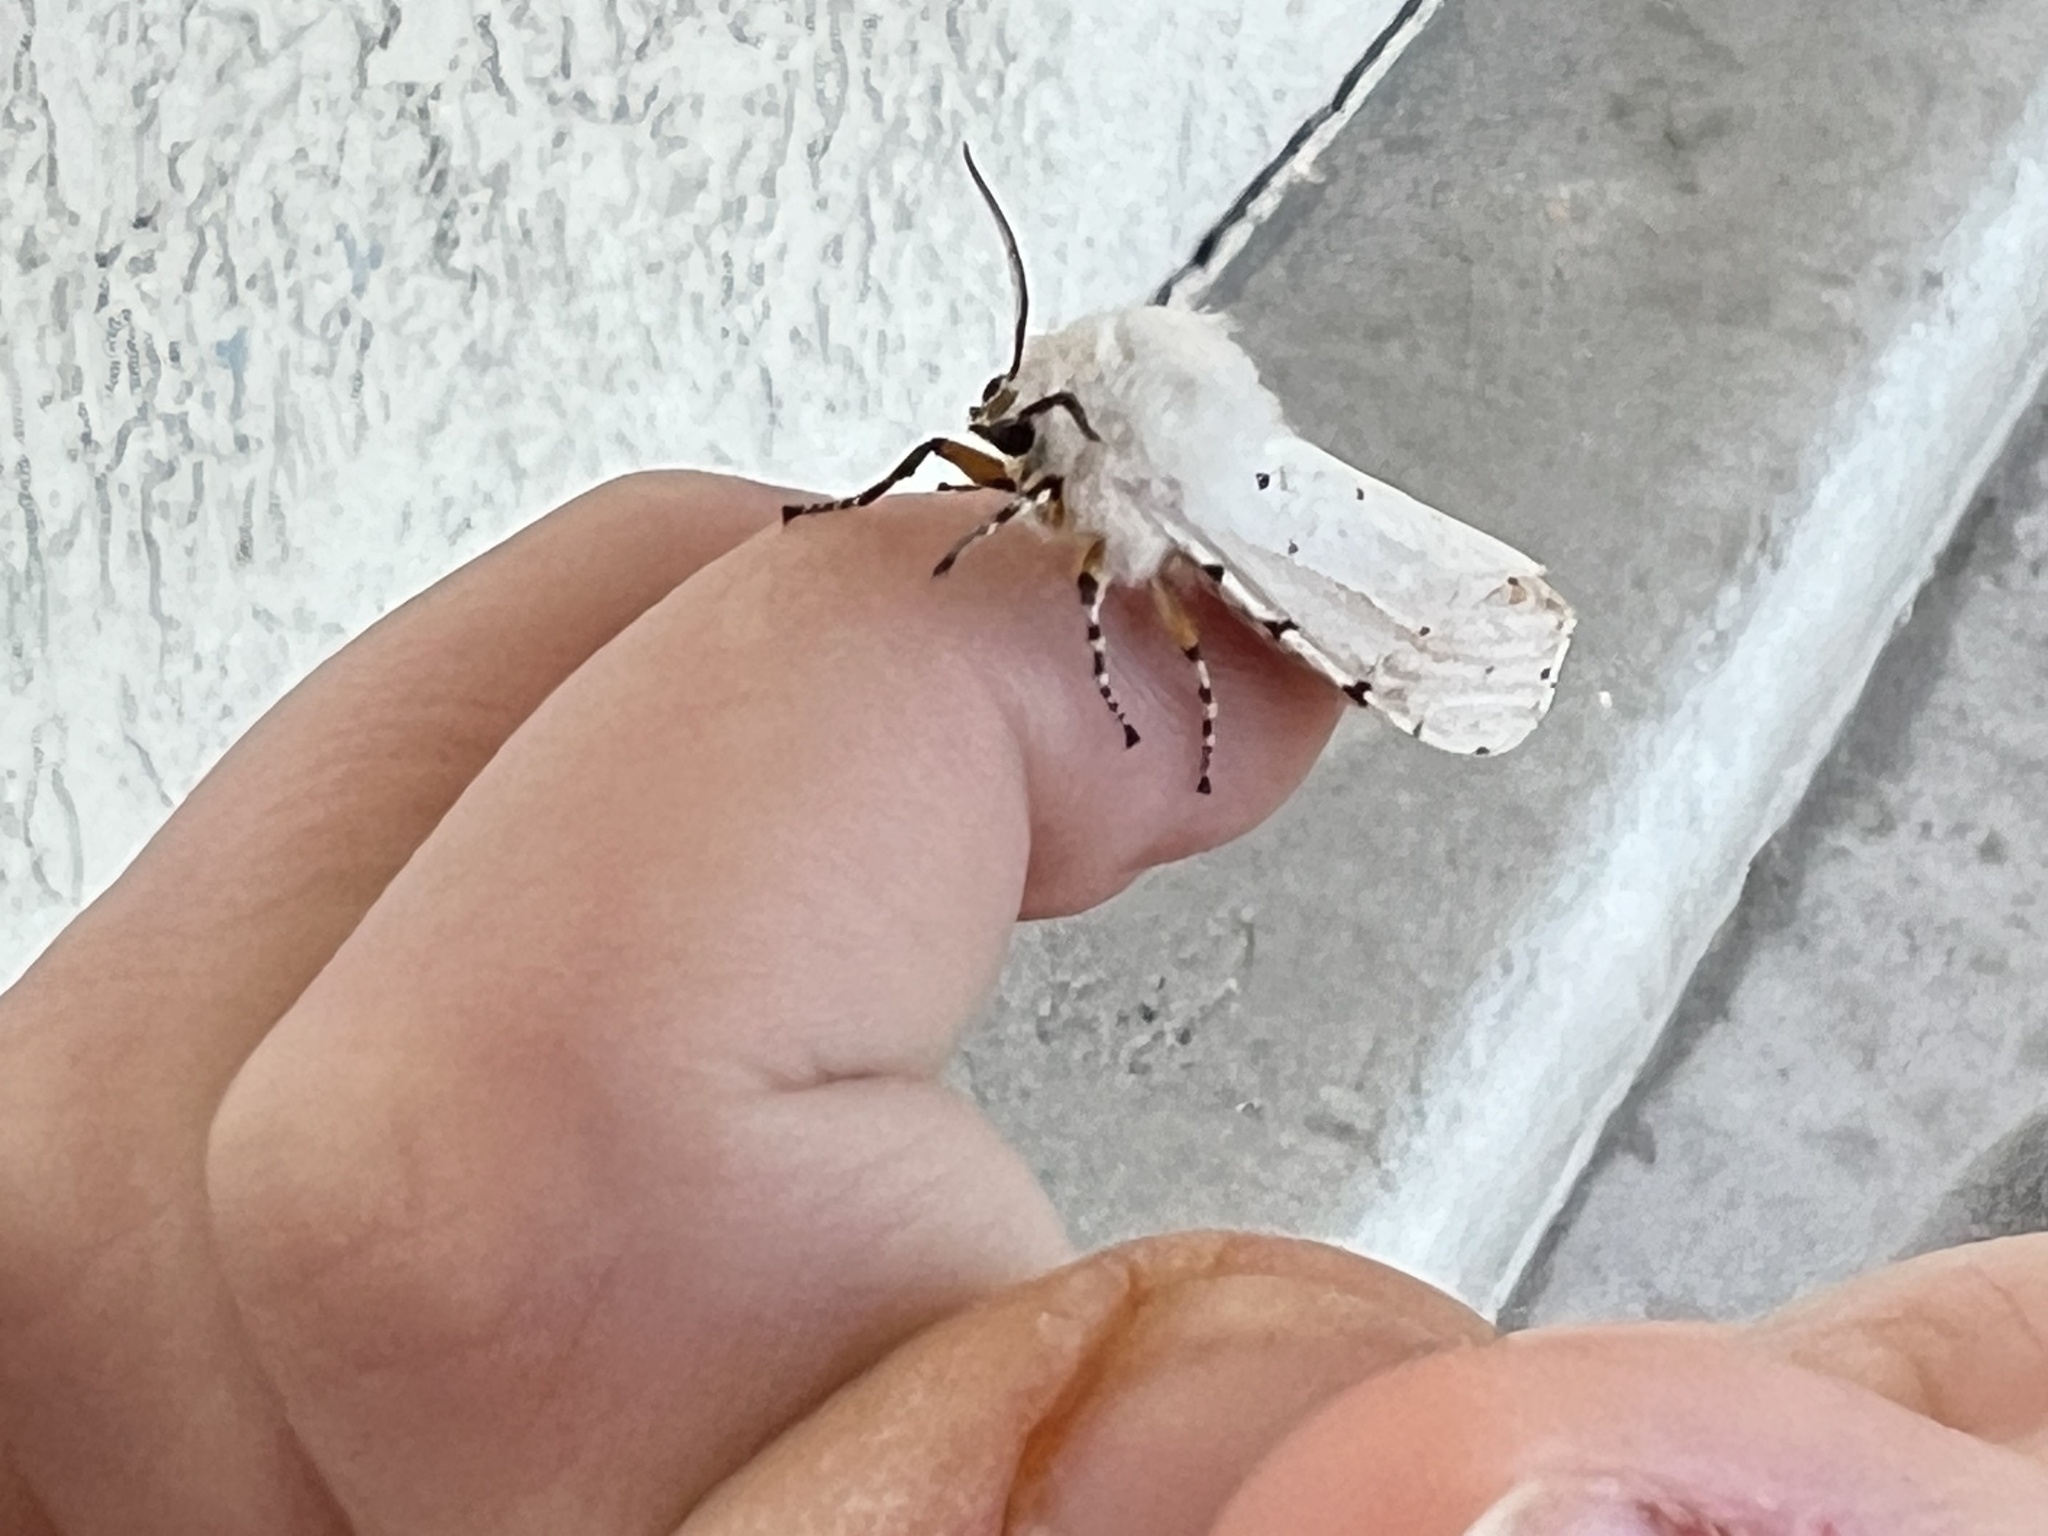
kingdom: Animalia
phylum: Arthropoda
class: Insecta
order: Lepidoptera
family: Erebidae
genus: Estigmene
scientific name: Estigmene
